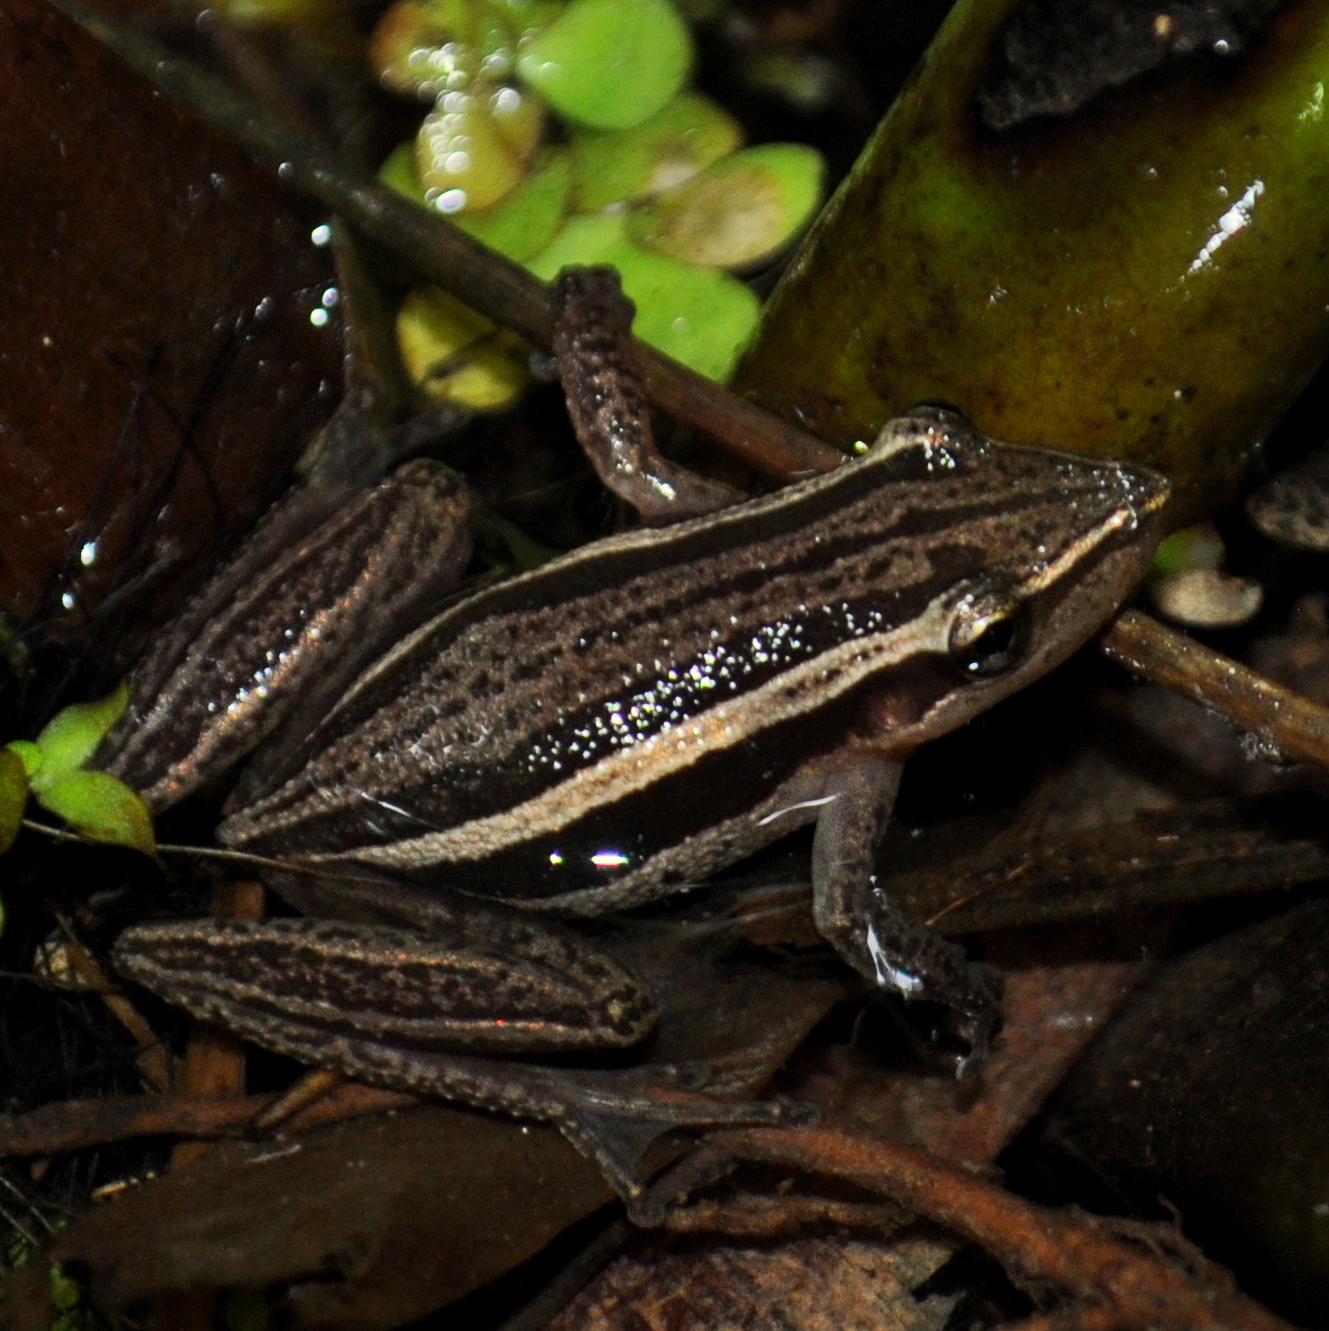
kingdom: Animalia
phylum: Chordata
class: Amphibia
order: Anura
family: Hylidae
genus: Scinax
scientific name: Scinax squalirostris
